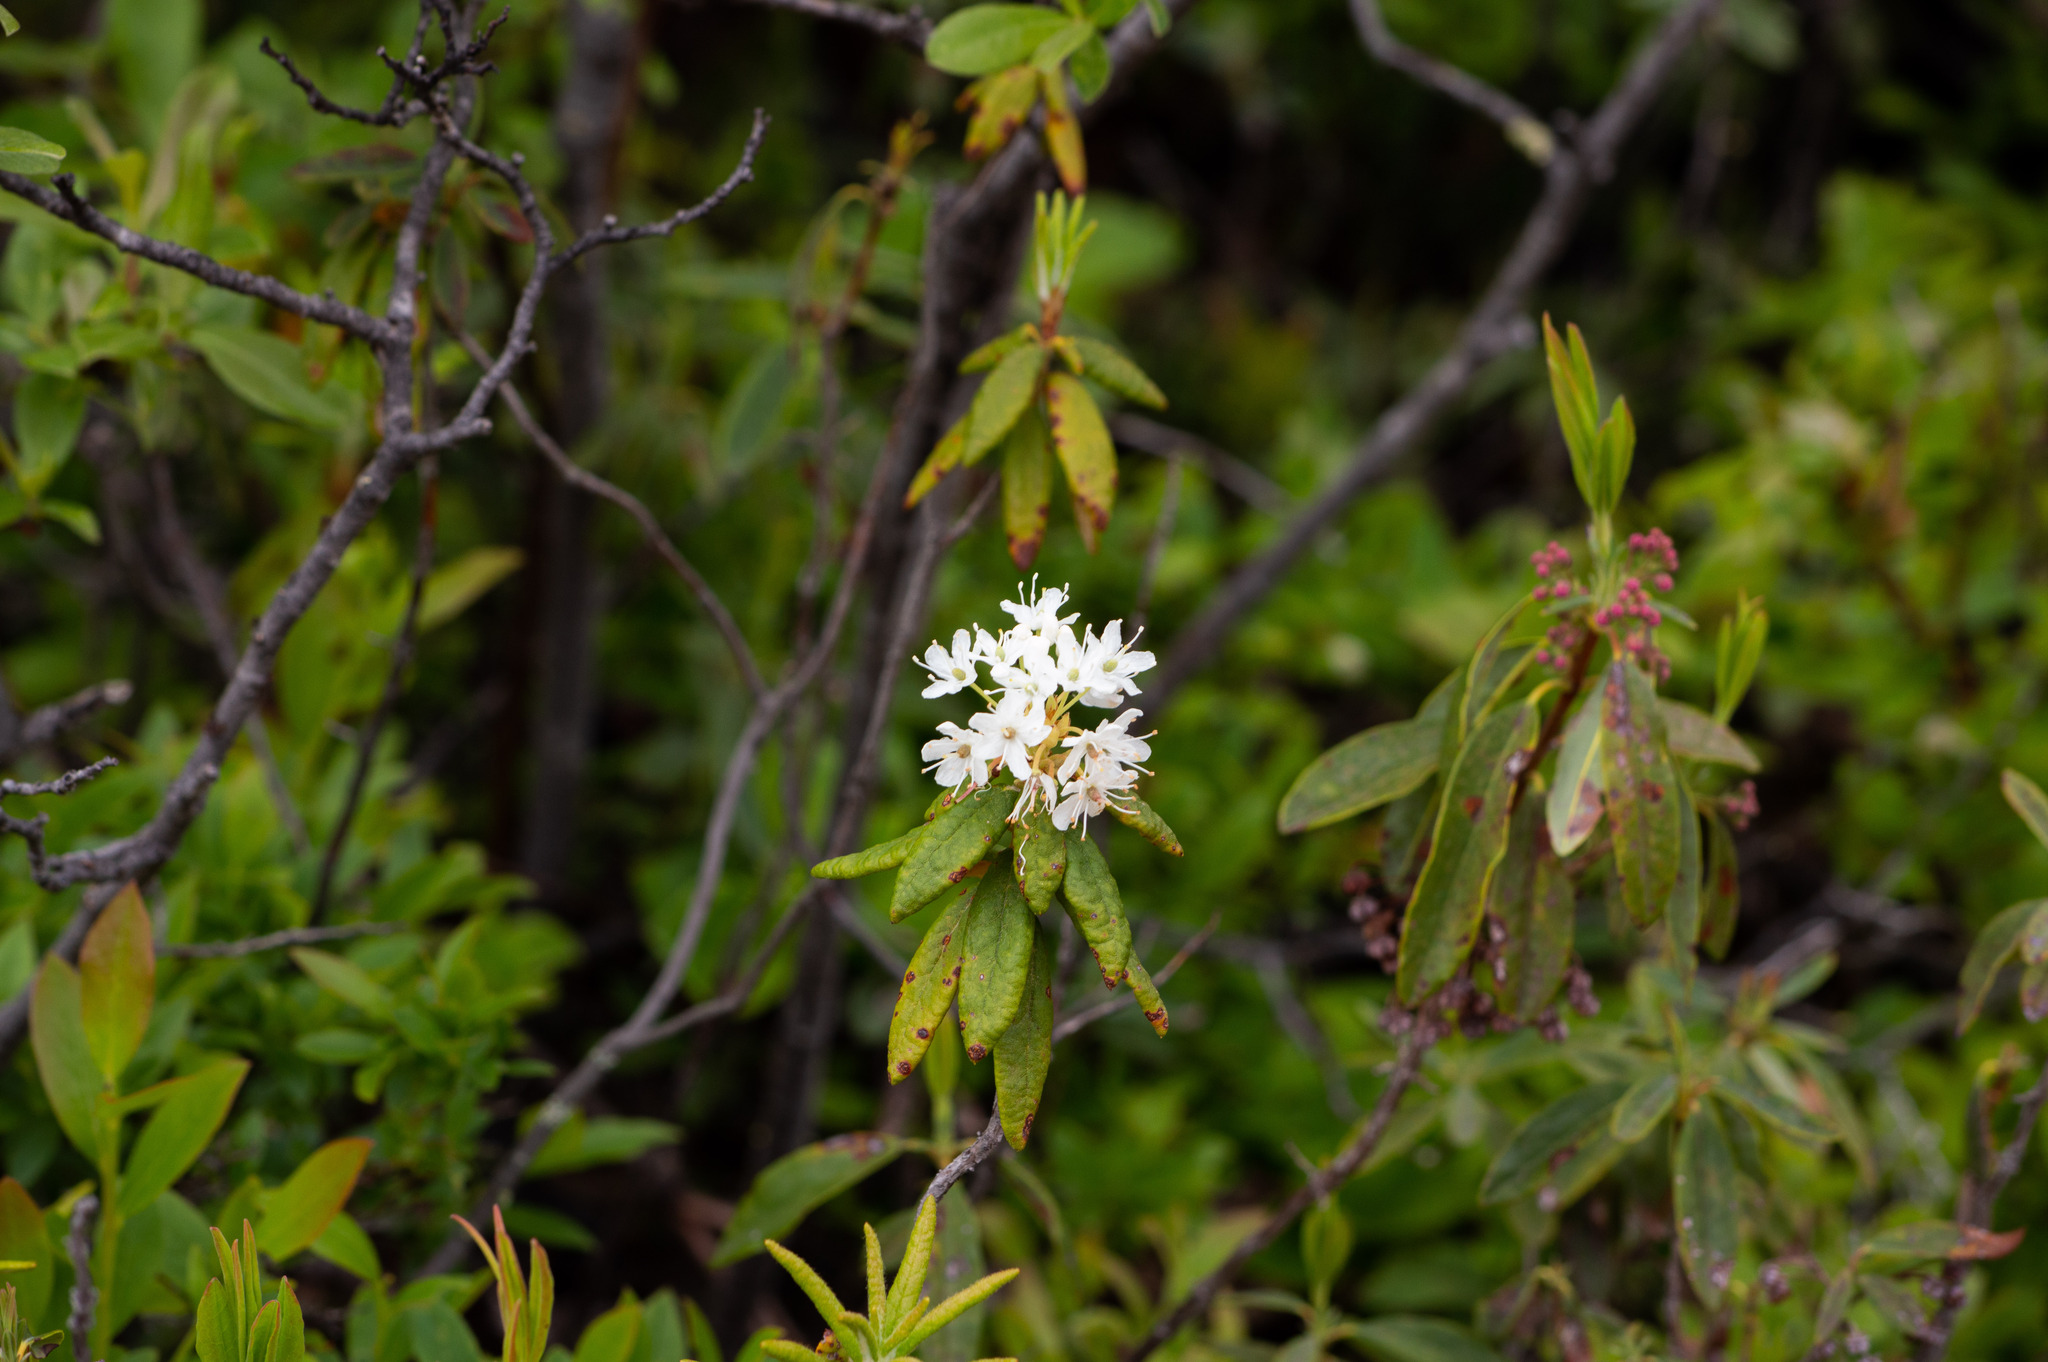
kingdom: Plantae
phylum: Tracheophyta
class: Magnoliopsida
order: Ericales
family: Ericaceae
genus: Rhododendron
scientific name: Rhododendron groenlandicum
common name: Bog labrador tea
